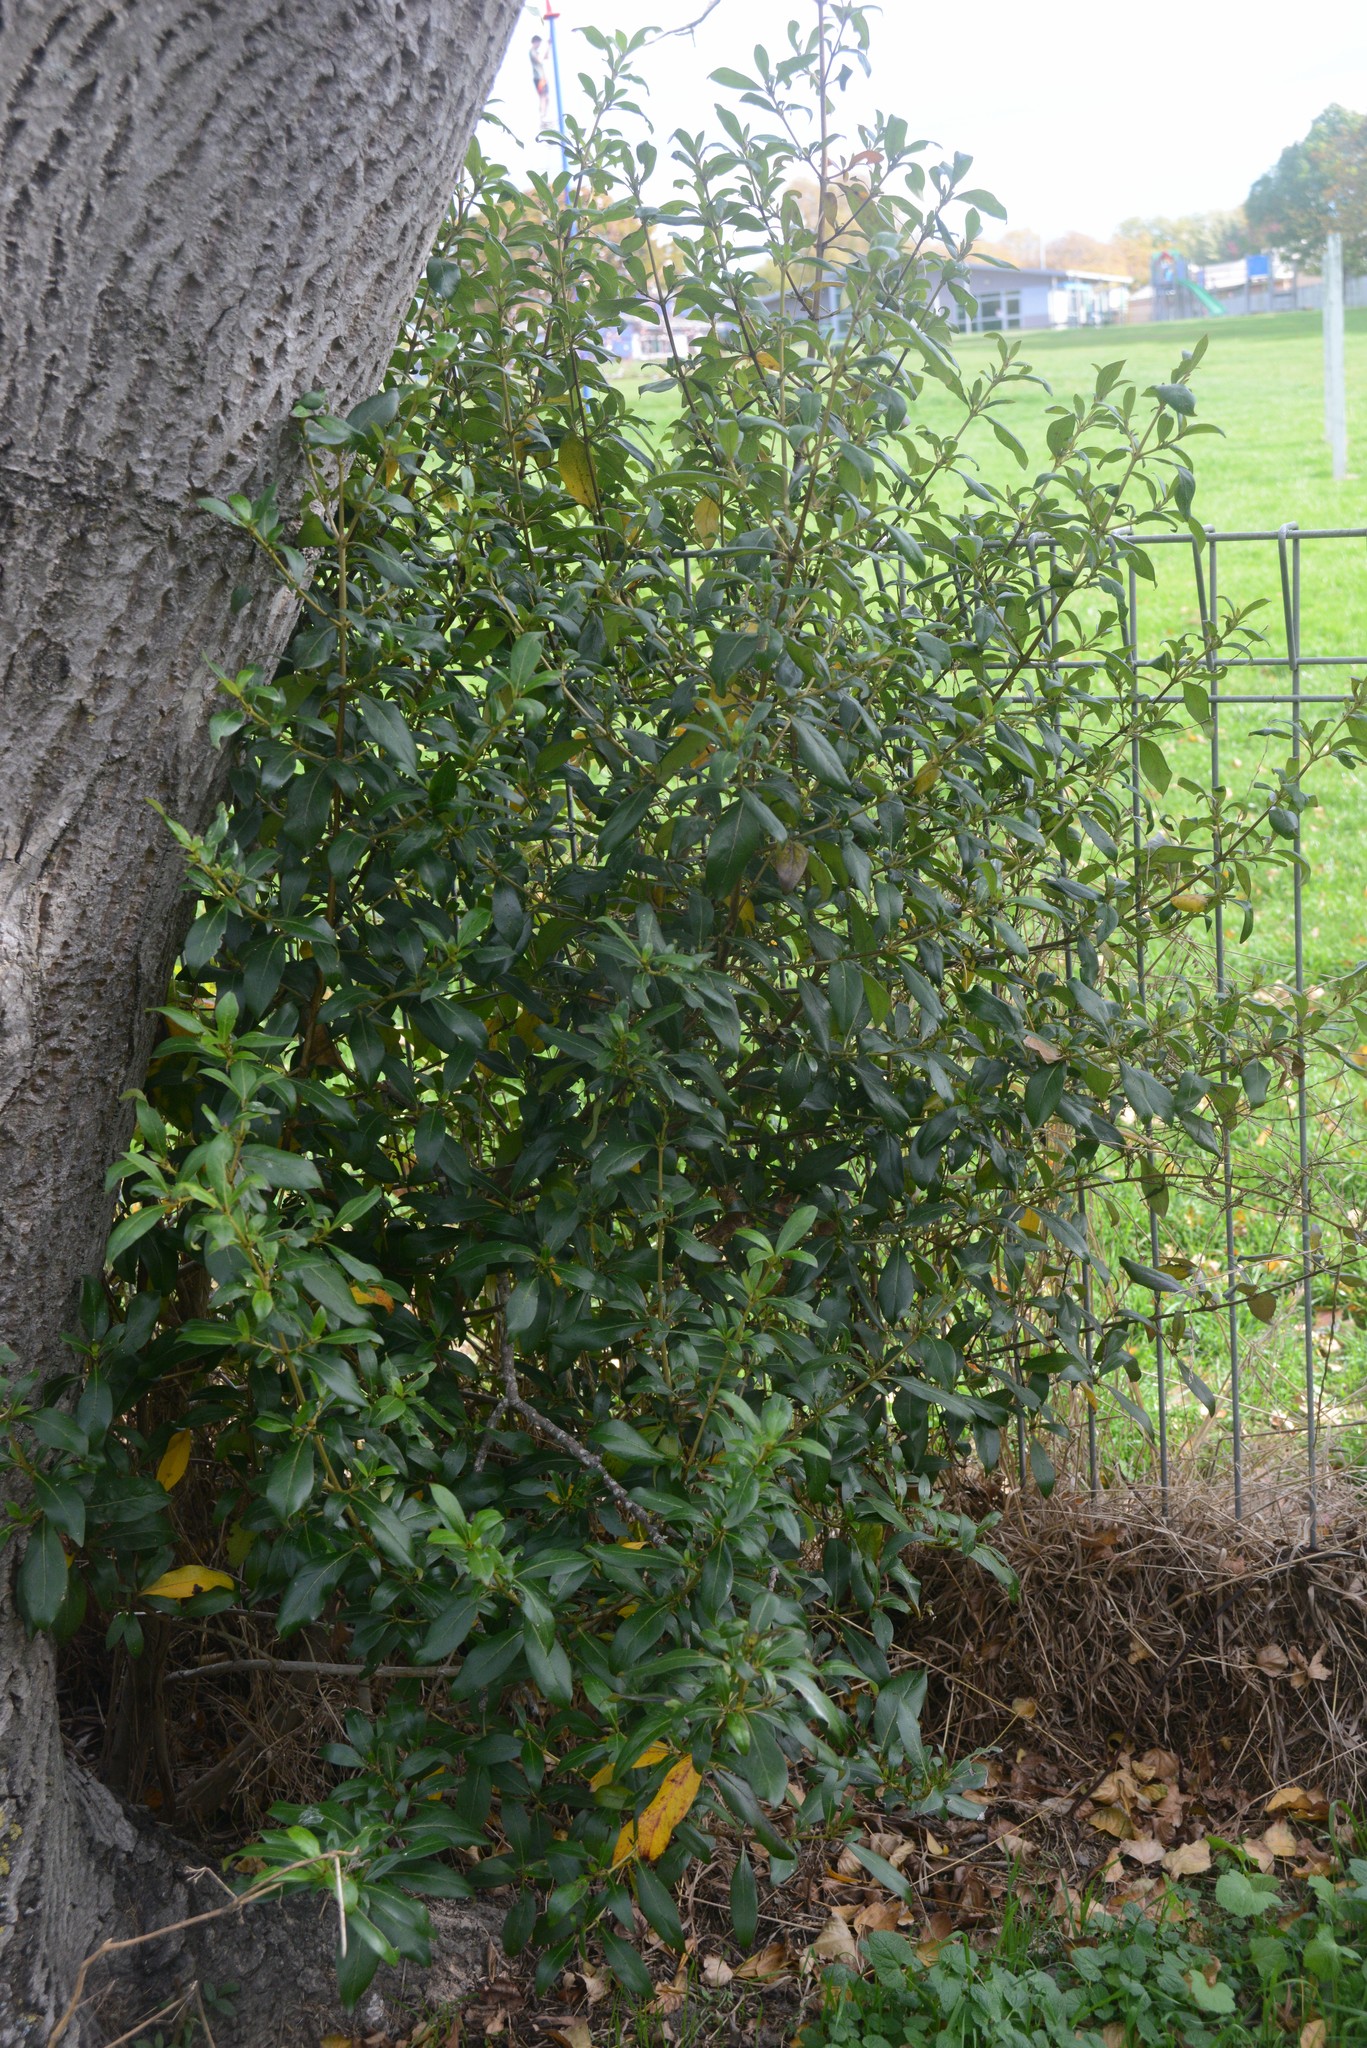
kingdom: Plantae
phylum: Tracheophyta
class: Magnoliopsida
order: Gentianales
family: Rubiaceae
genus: Coprosma
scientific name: Coprosma robusta
